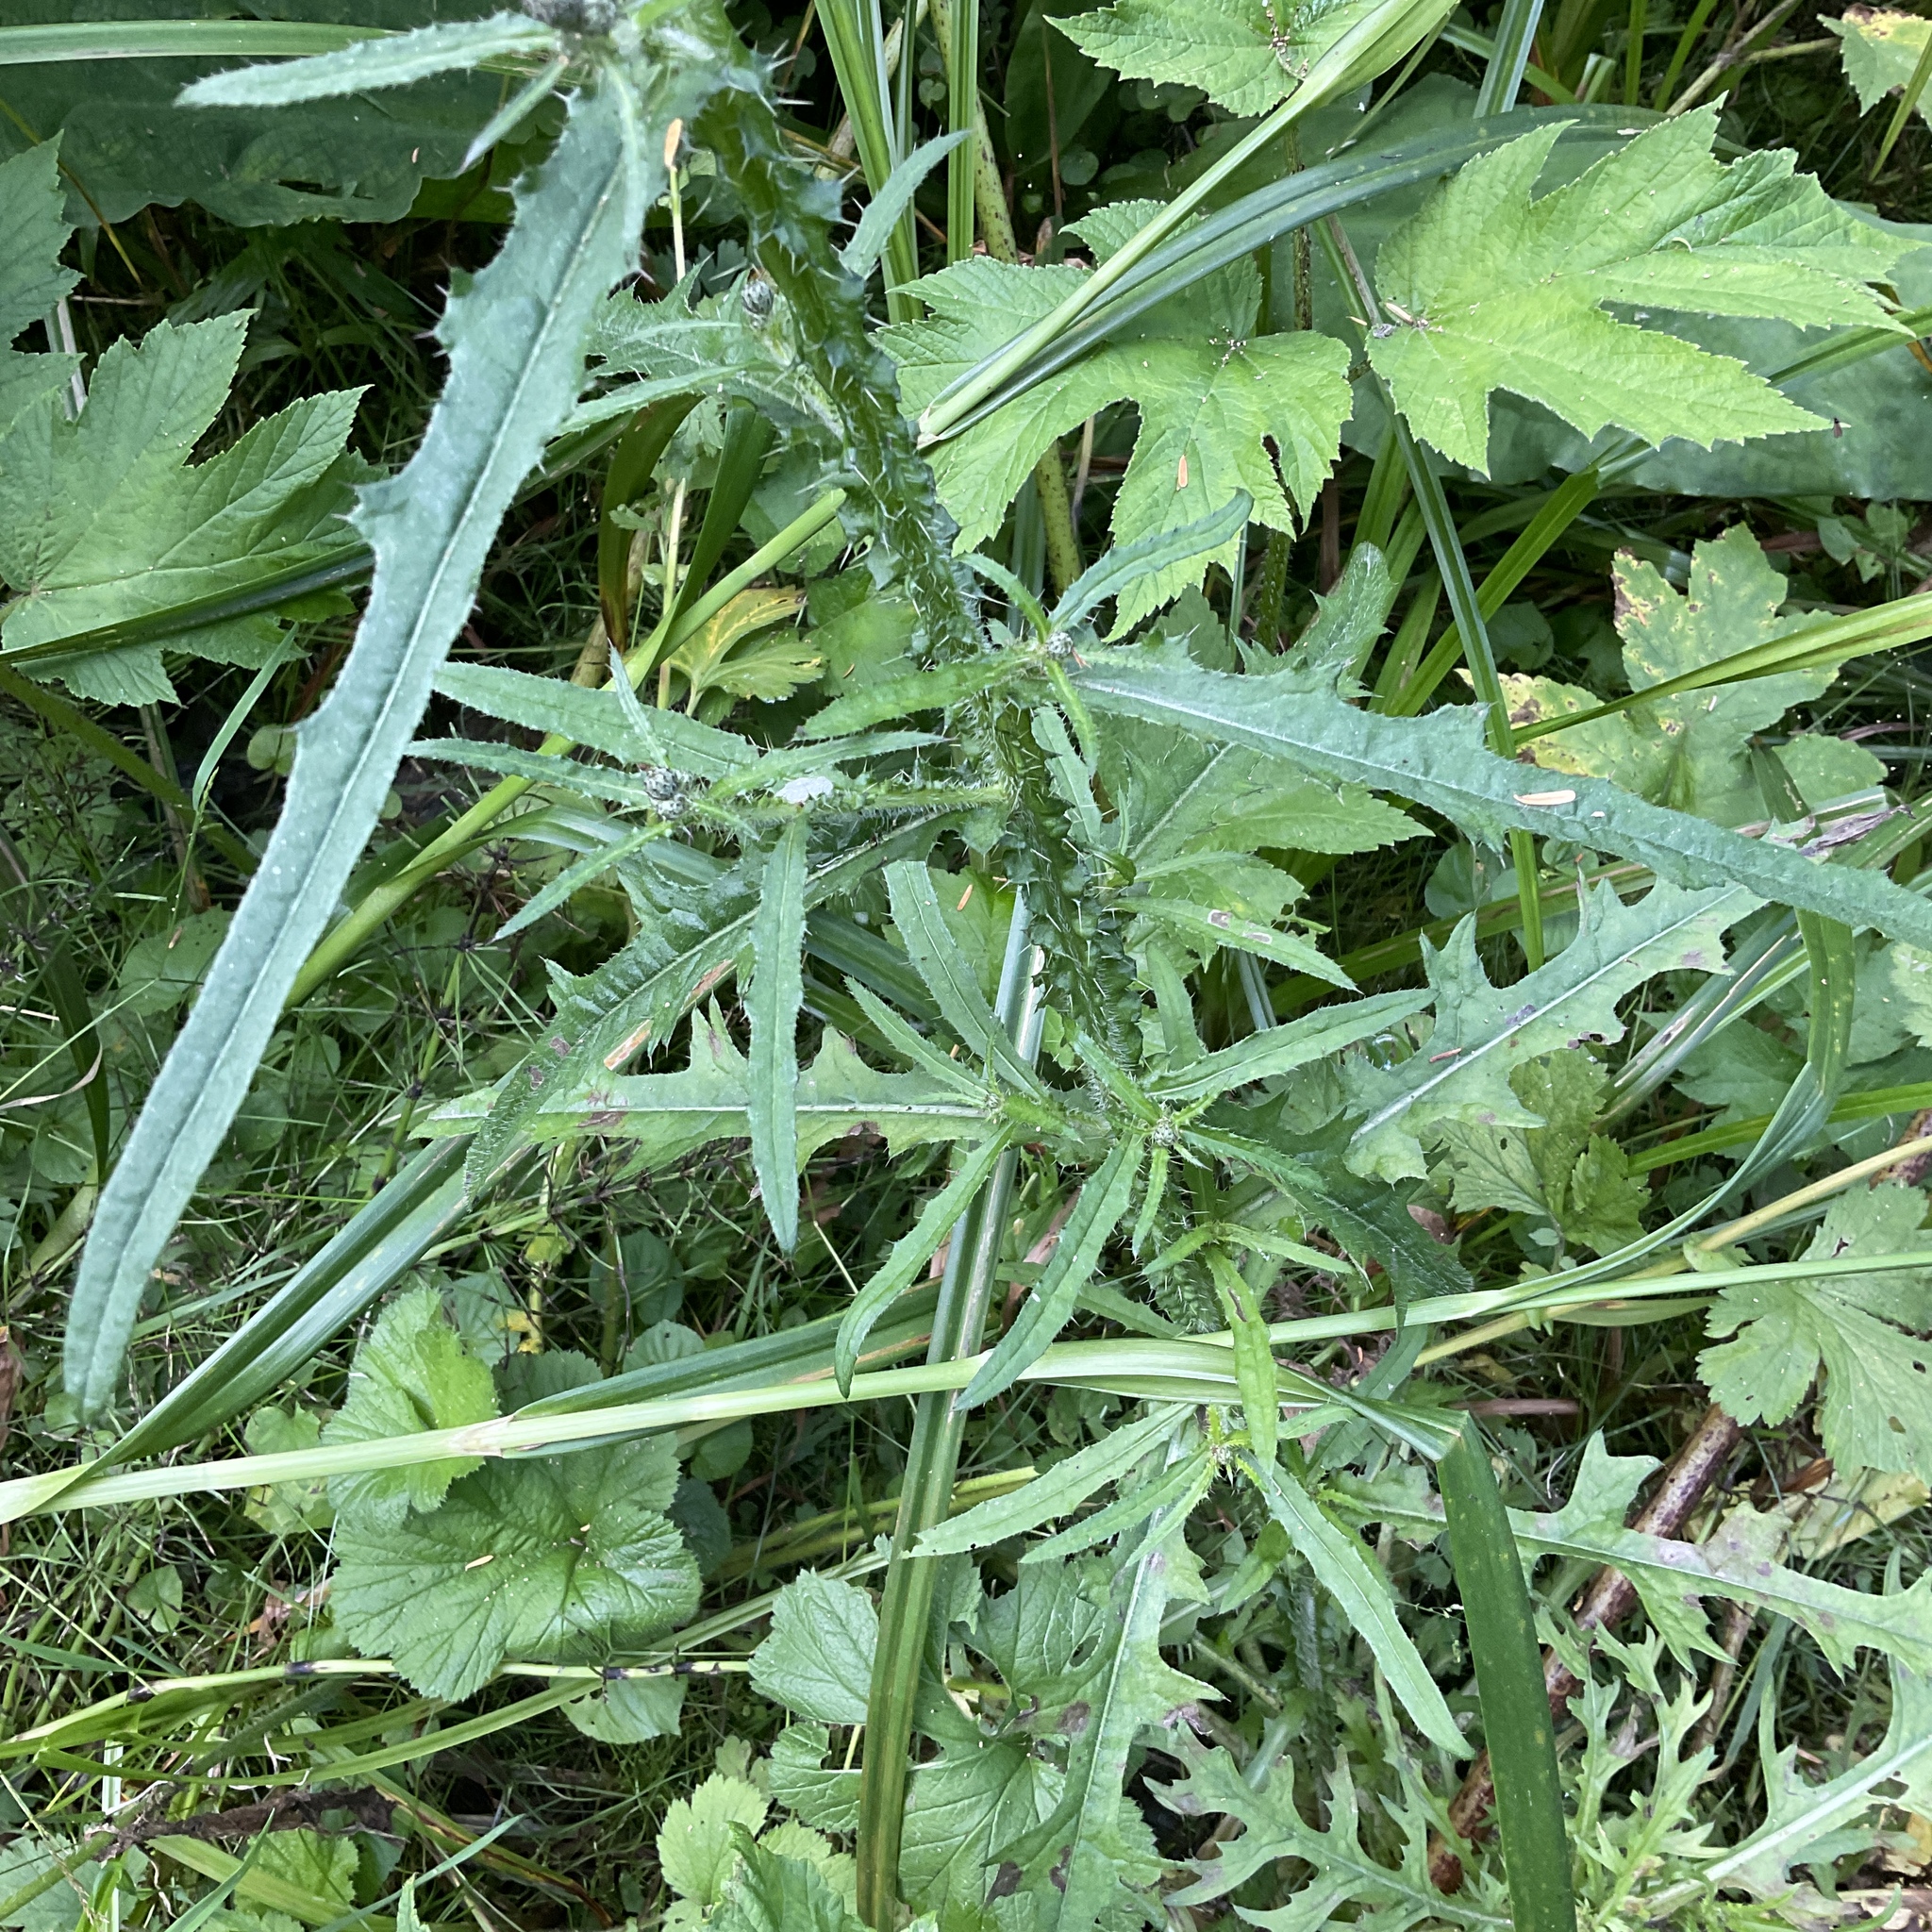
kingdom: Plantae
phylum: Tracheophyta
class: Magnoliopsida
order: Asterales
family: Asteraceae
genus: Cirsium
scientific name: Cirsium palustre
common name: Marsh thistle
